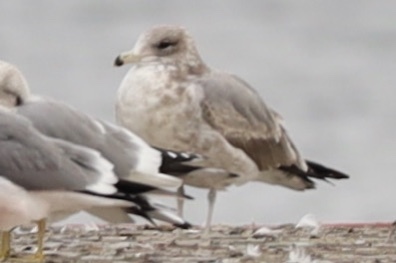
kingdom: Animalia
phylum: Chordata
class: Aves
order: Charadriiformes
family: Laridae
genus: Larus
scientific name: Larus californicus
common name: California gull
